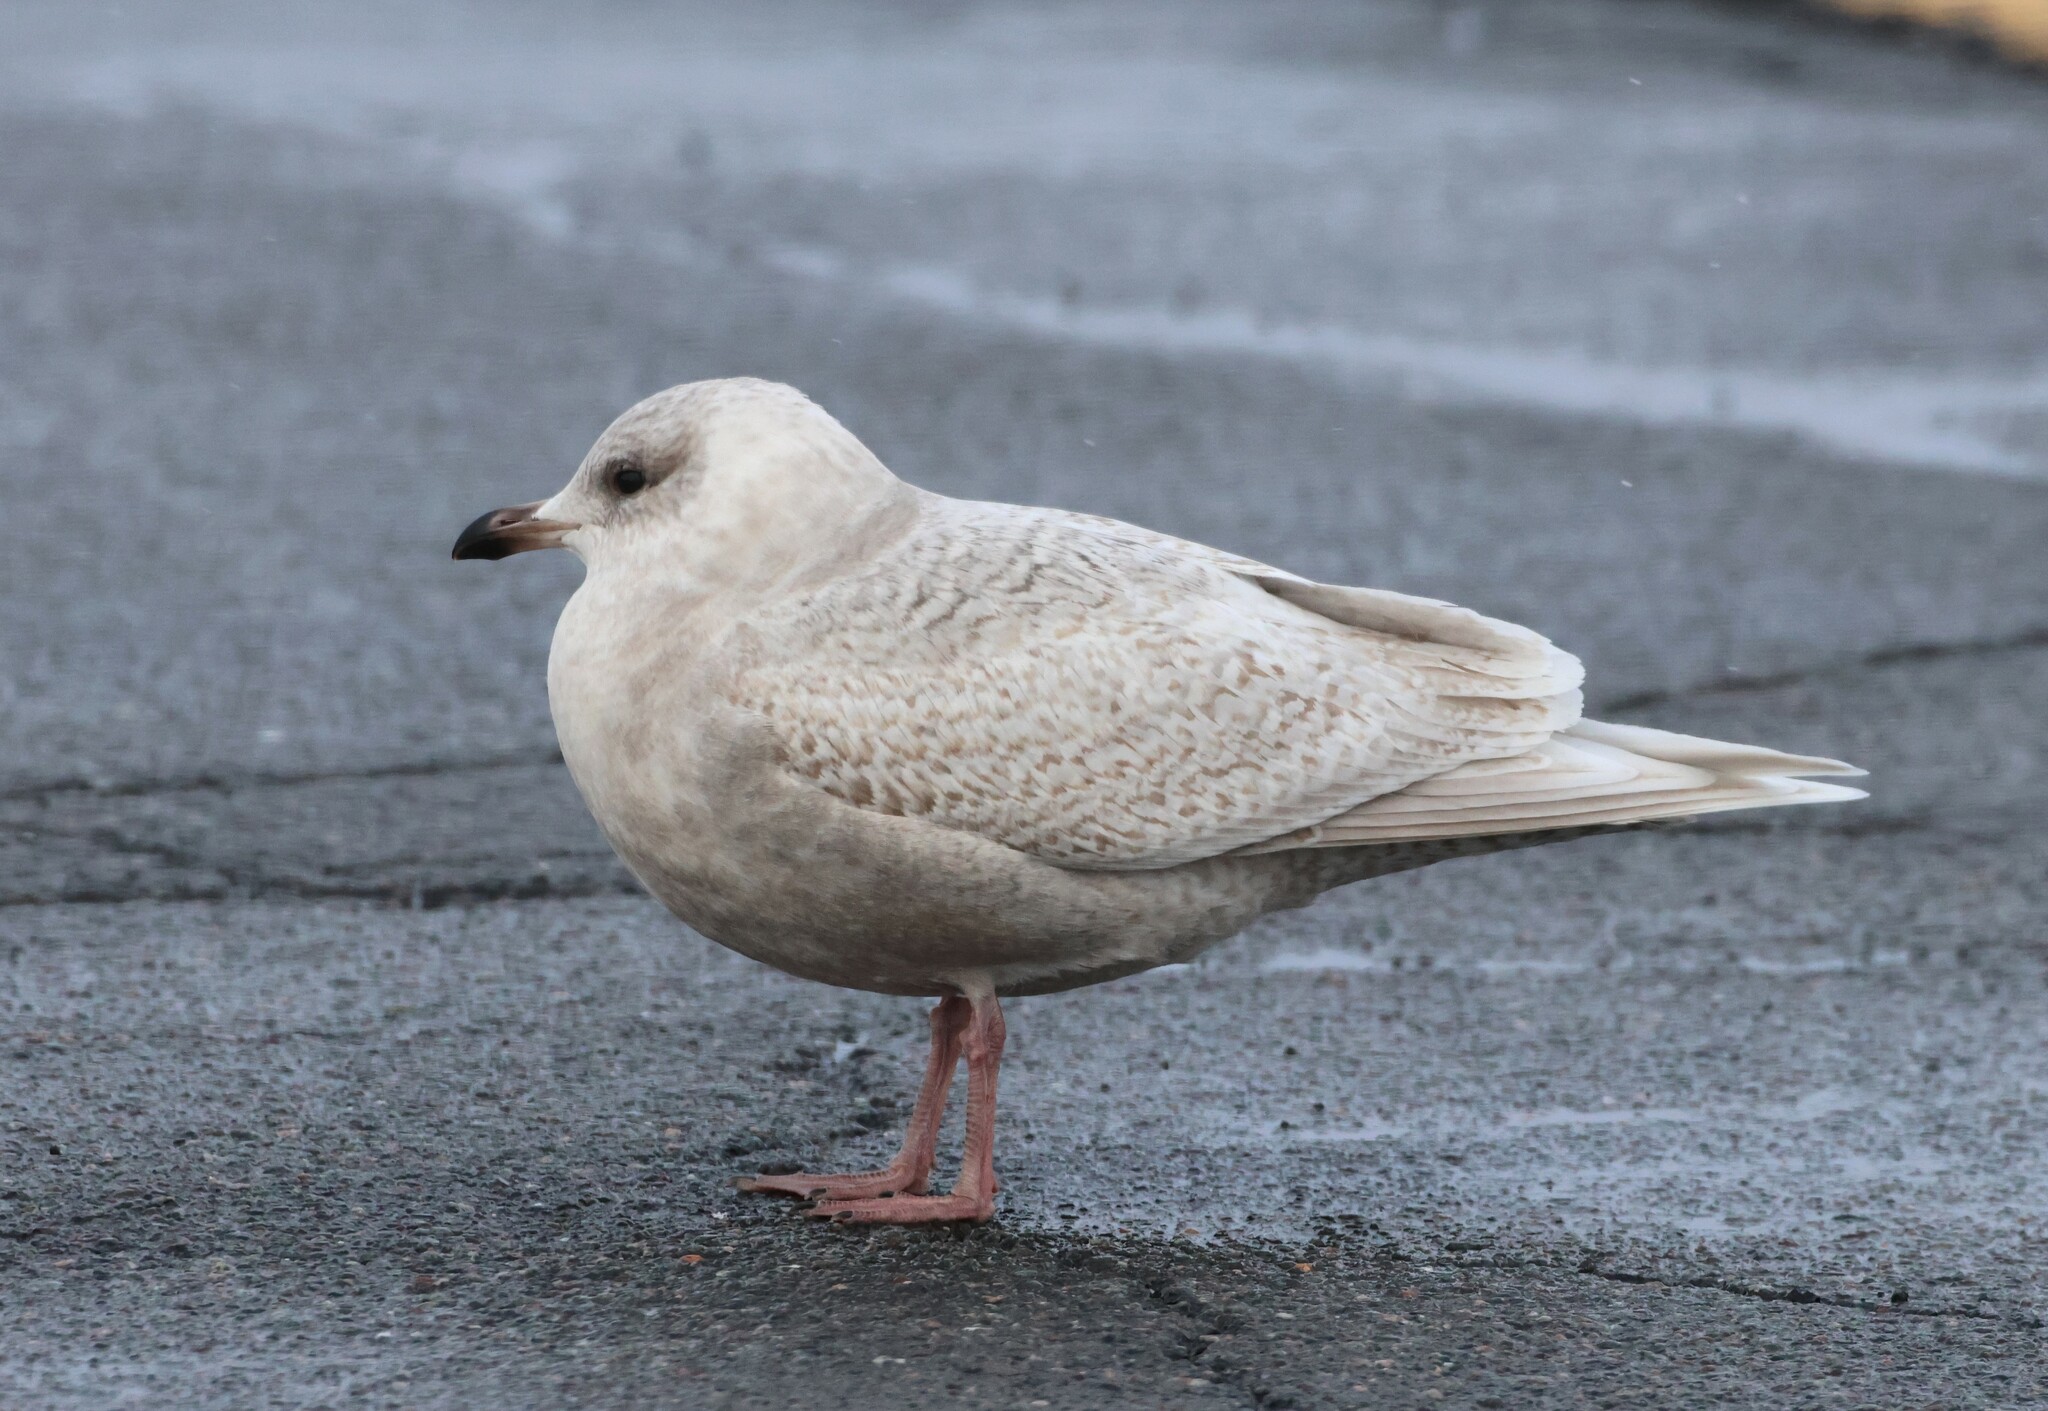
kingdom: Animalia
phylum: Chordata
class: Aves
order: Charadriiformes
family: Laridae
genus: Larus
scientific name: Larus glaucoides
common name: Iceland gull
